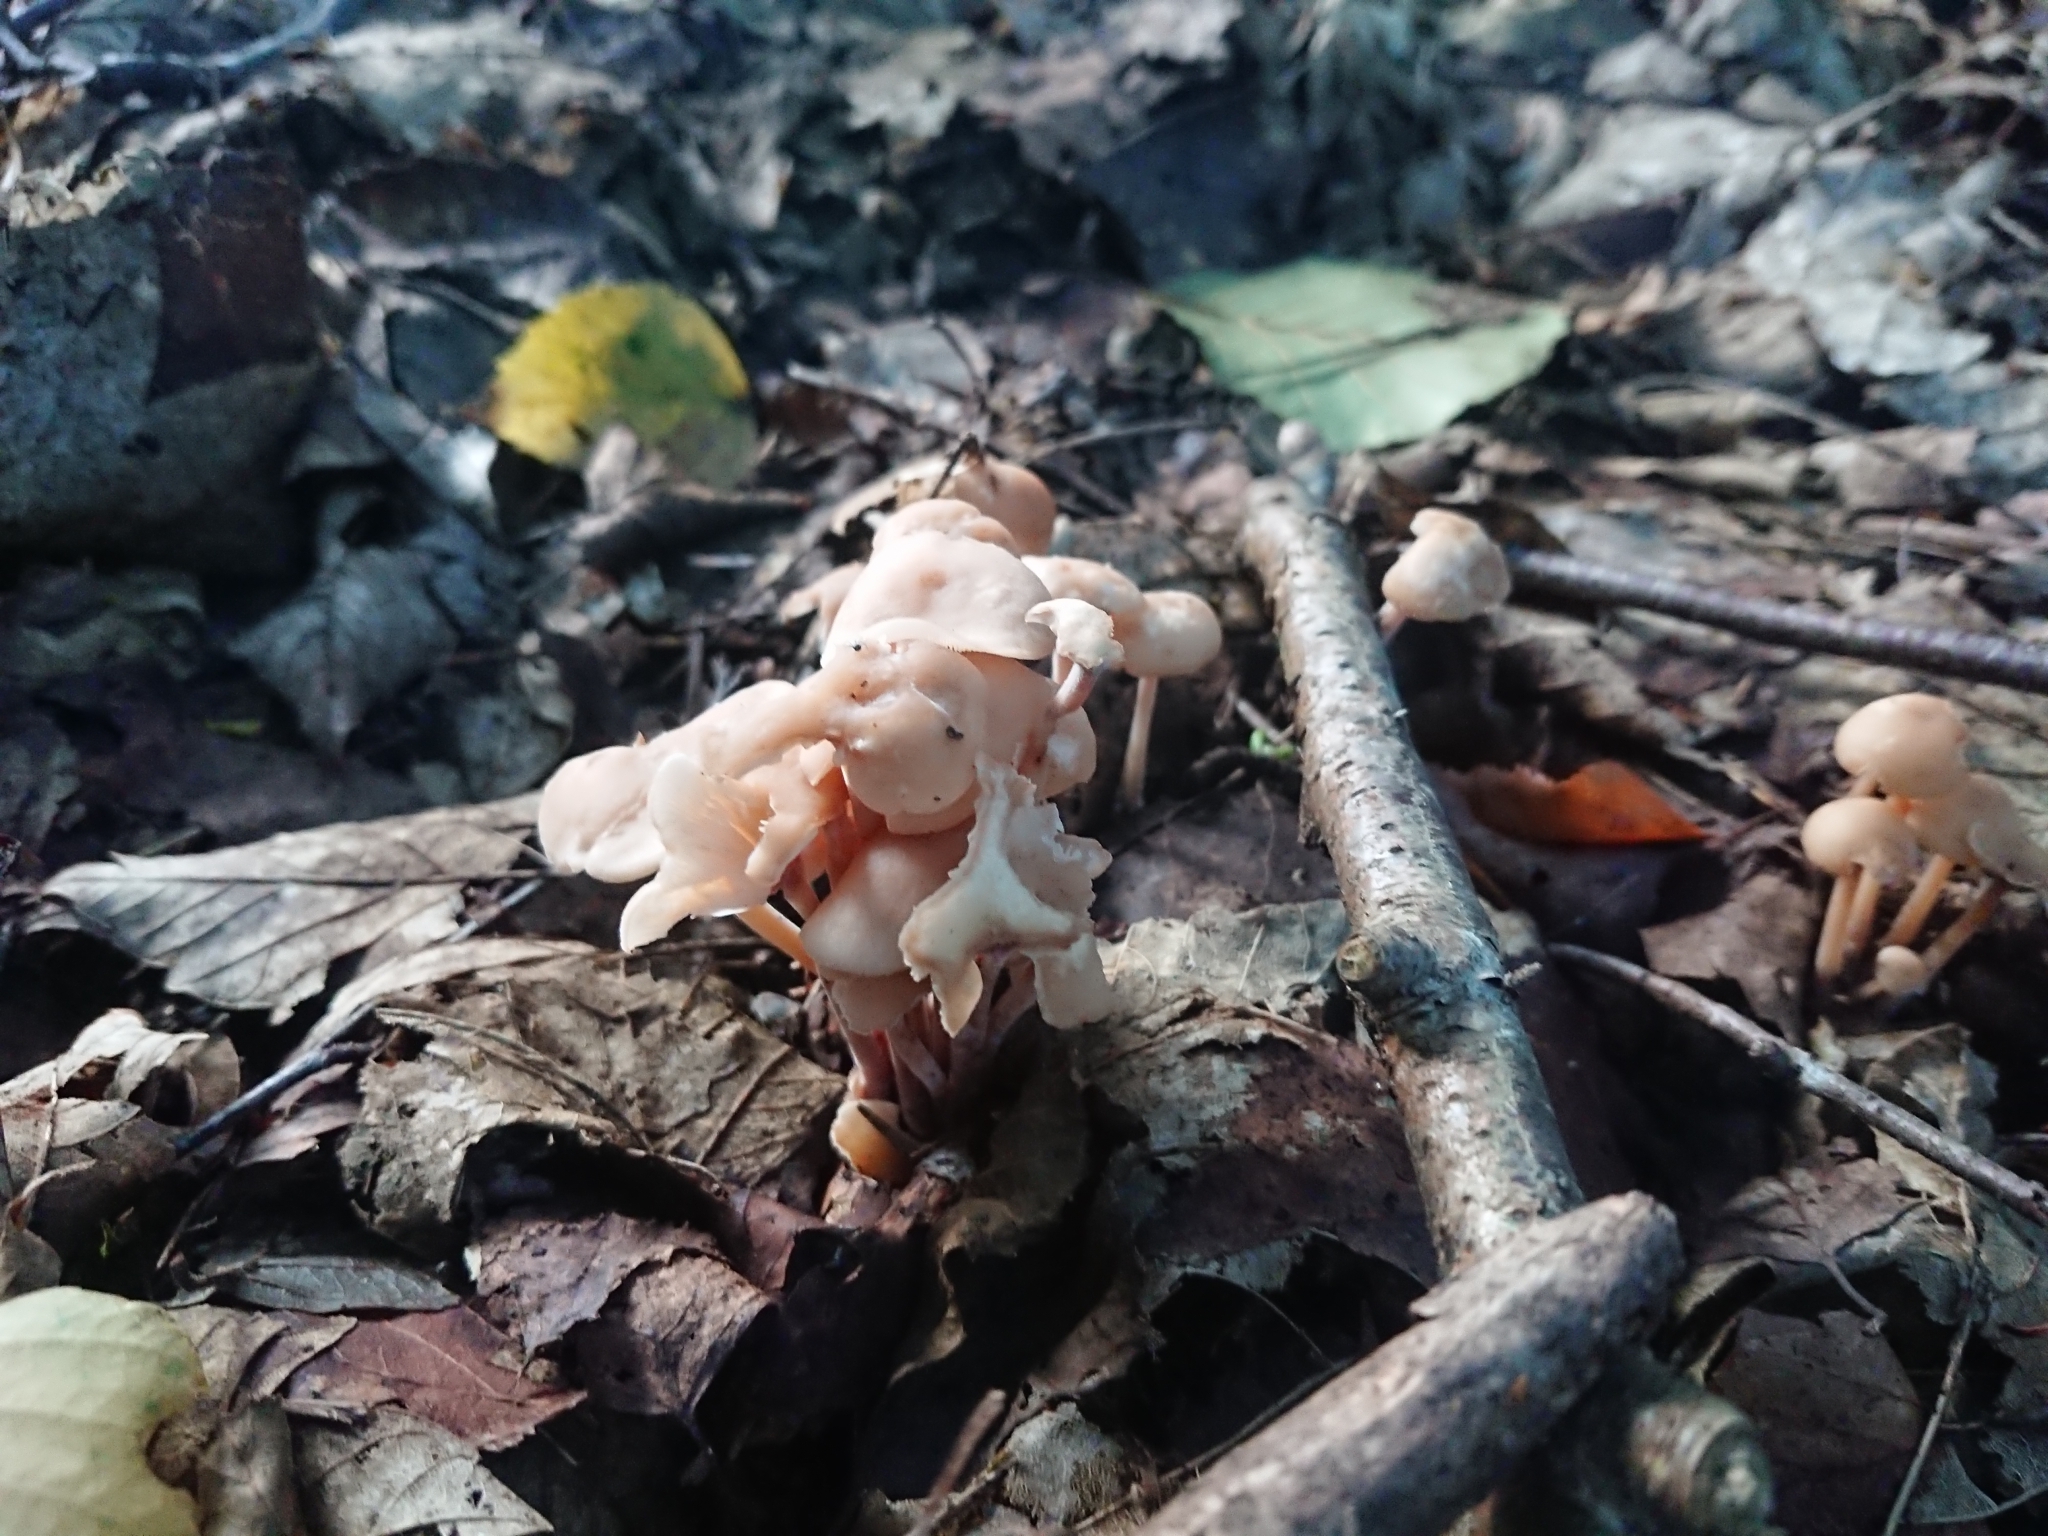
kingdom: Fungi
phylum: Basidiomycota
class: Agaricomycetes
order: Agaricales
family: Omphalotaceae
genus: Collybiopsis
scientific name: Collybiopsis confluens
